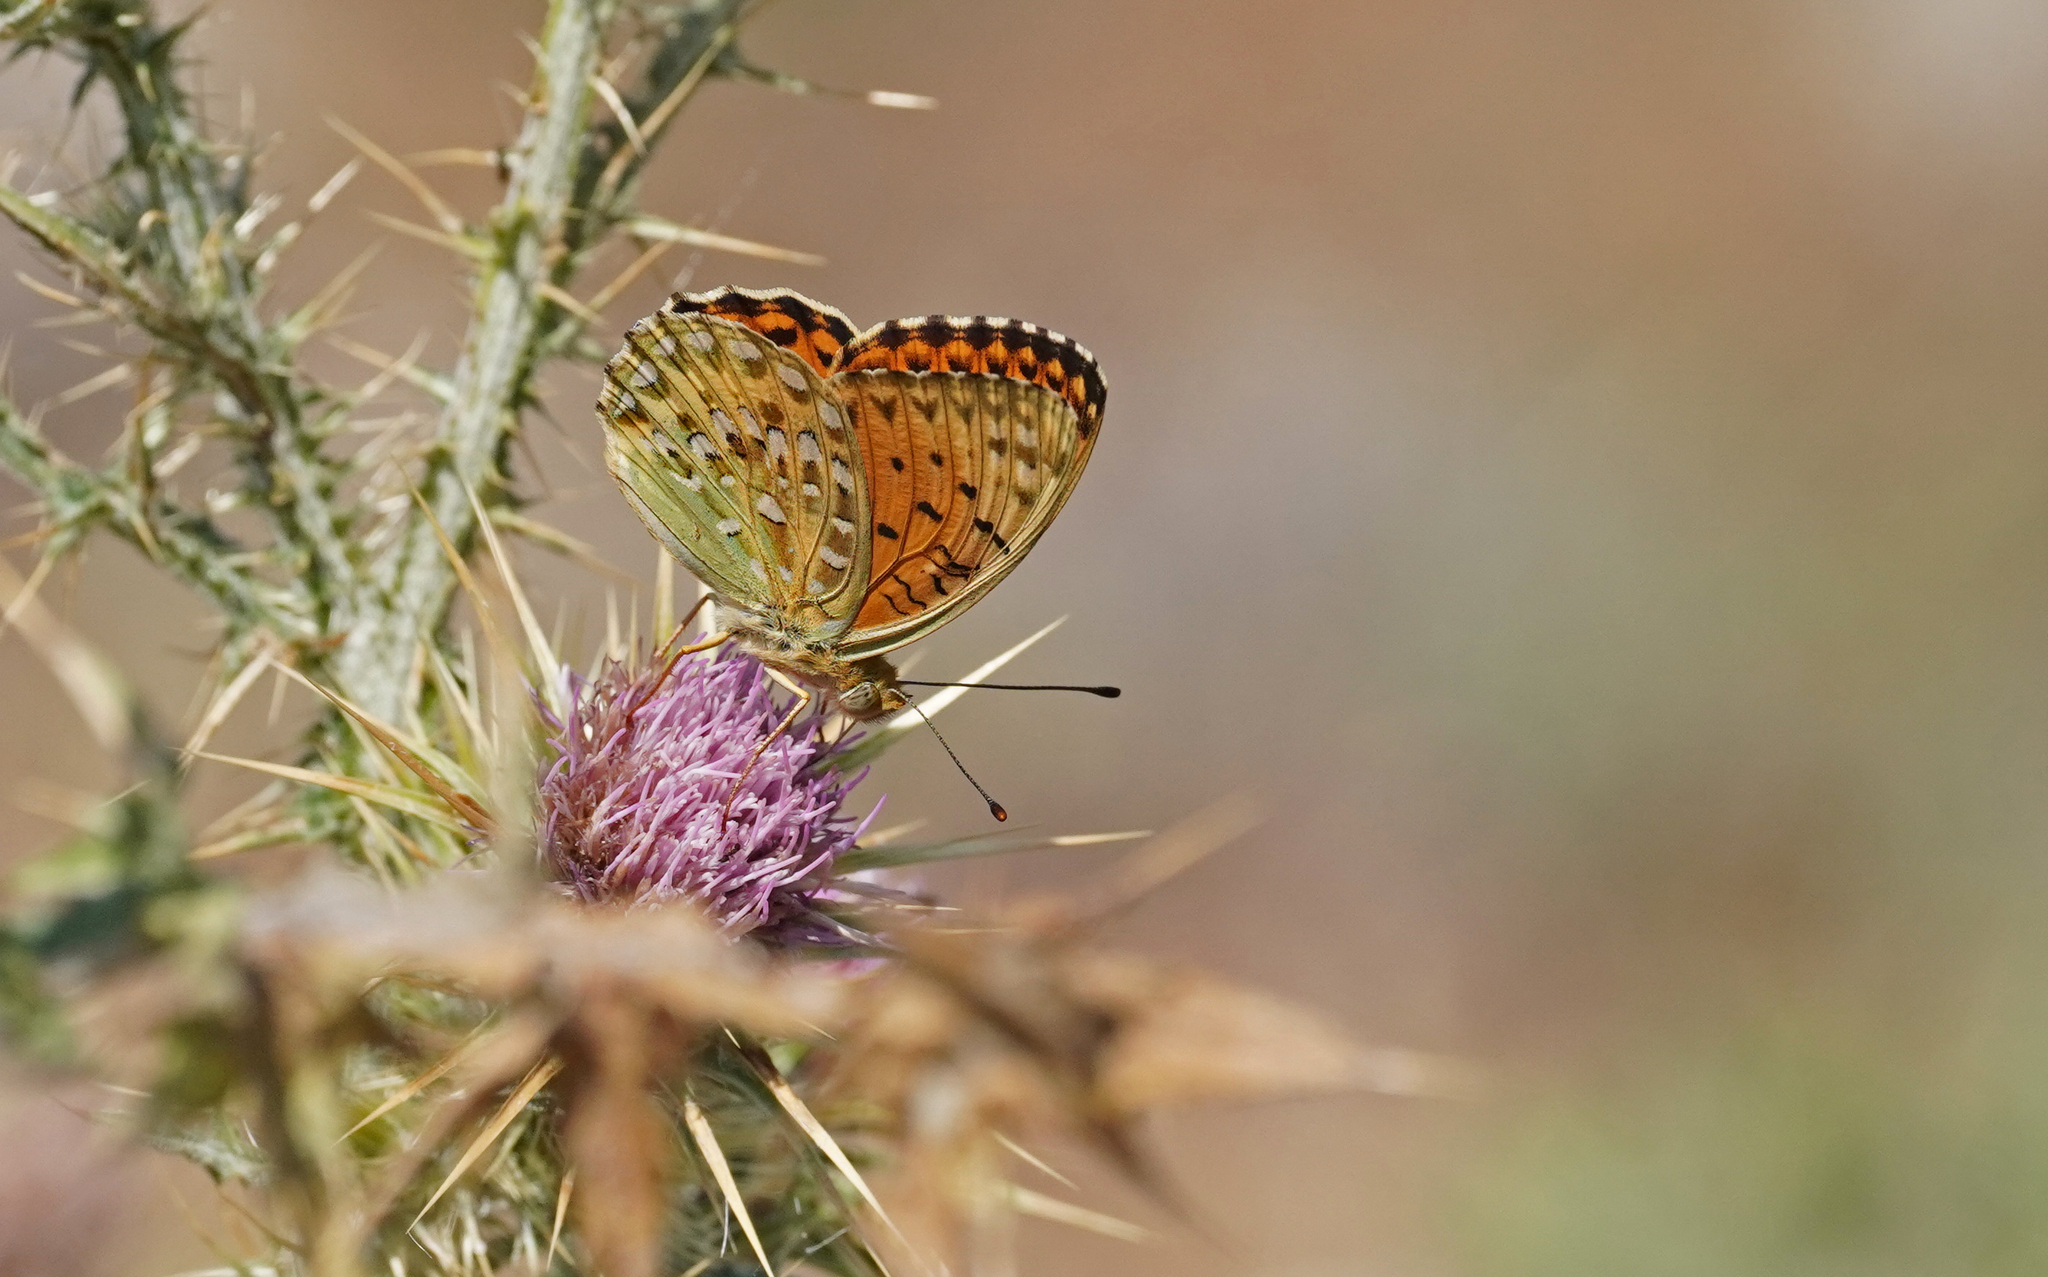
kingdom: Animalia
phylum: Arthropoda
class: Insecta
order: Lepidoptera
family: Nymphalidae
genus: Fabriciana
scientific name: Fabriciana niobe
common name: Niobe fritillary
